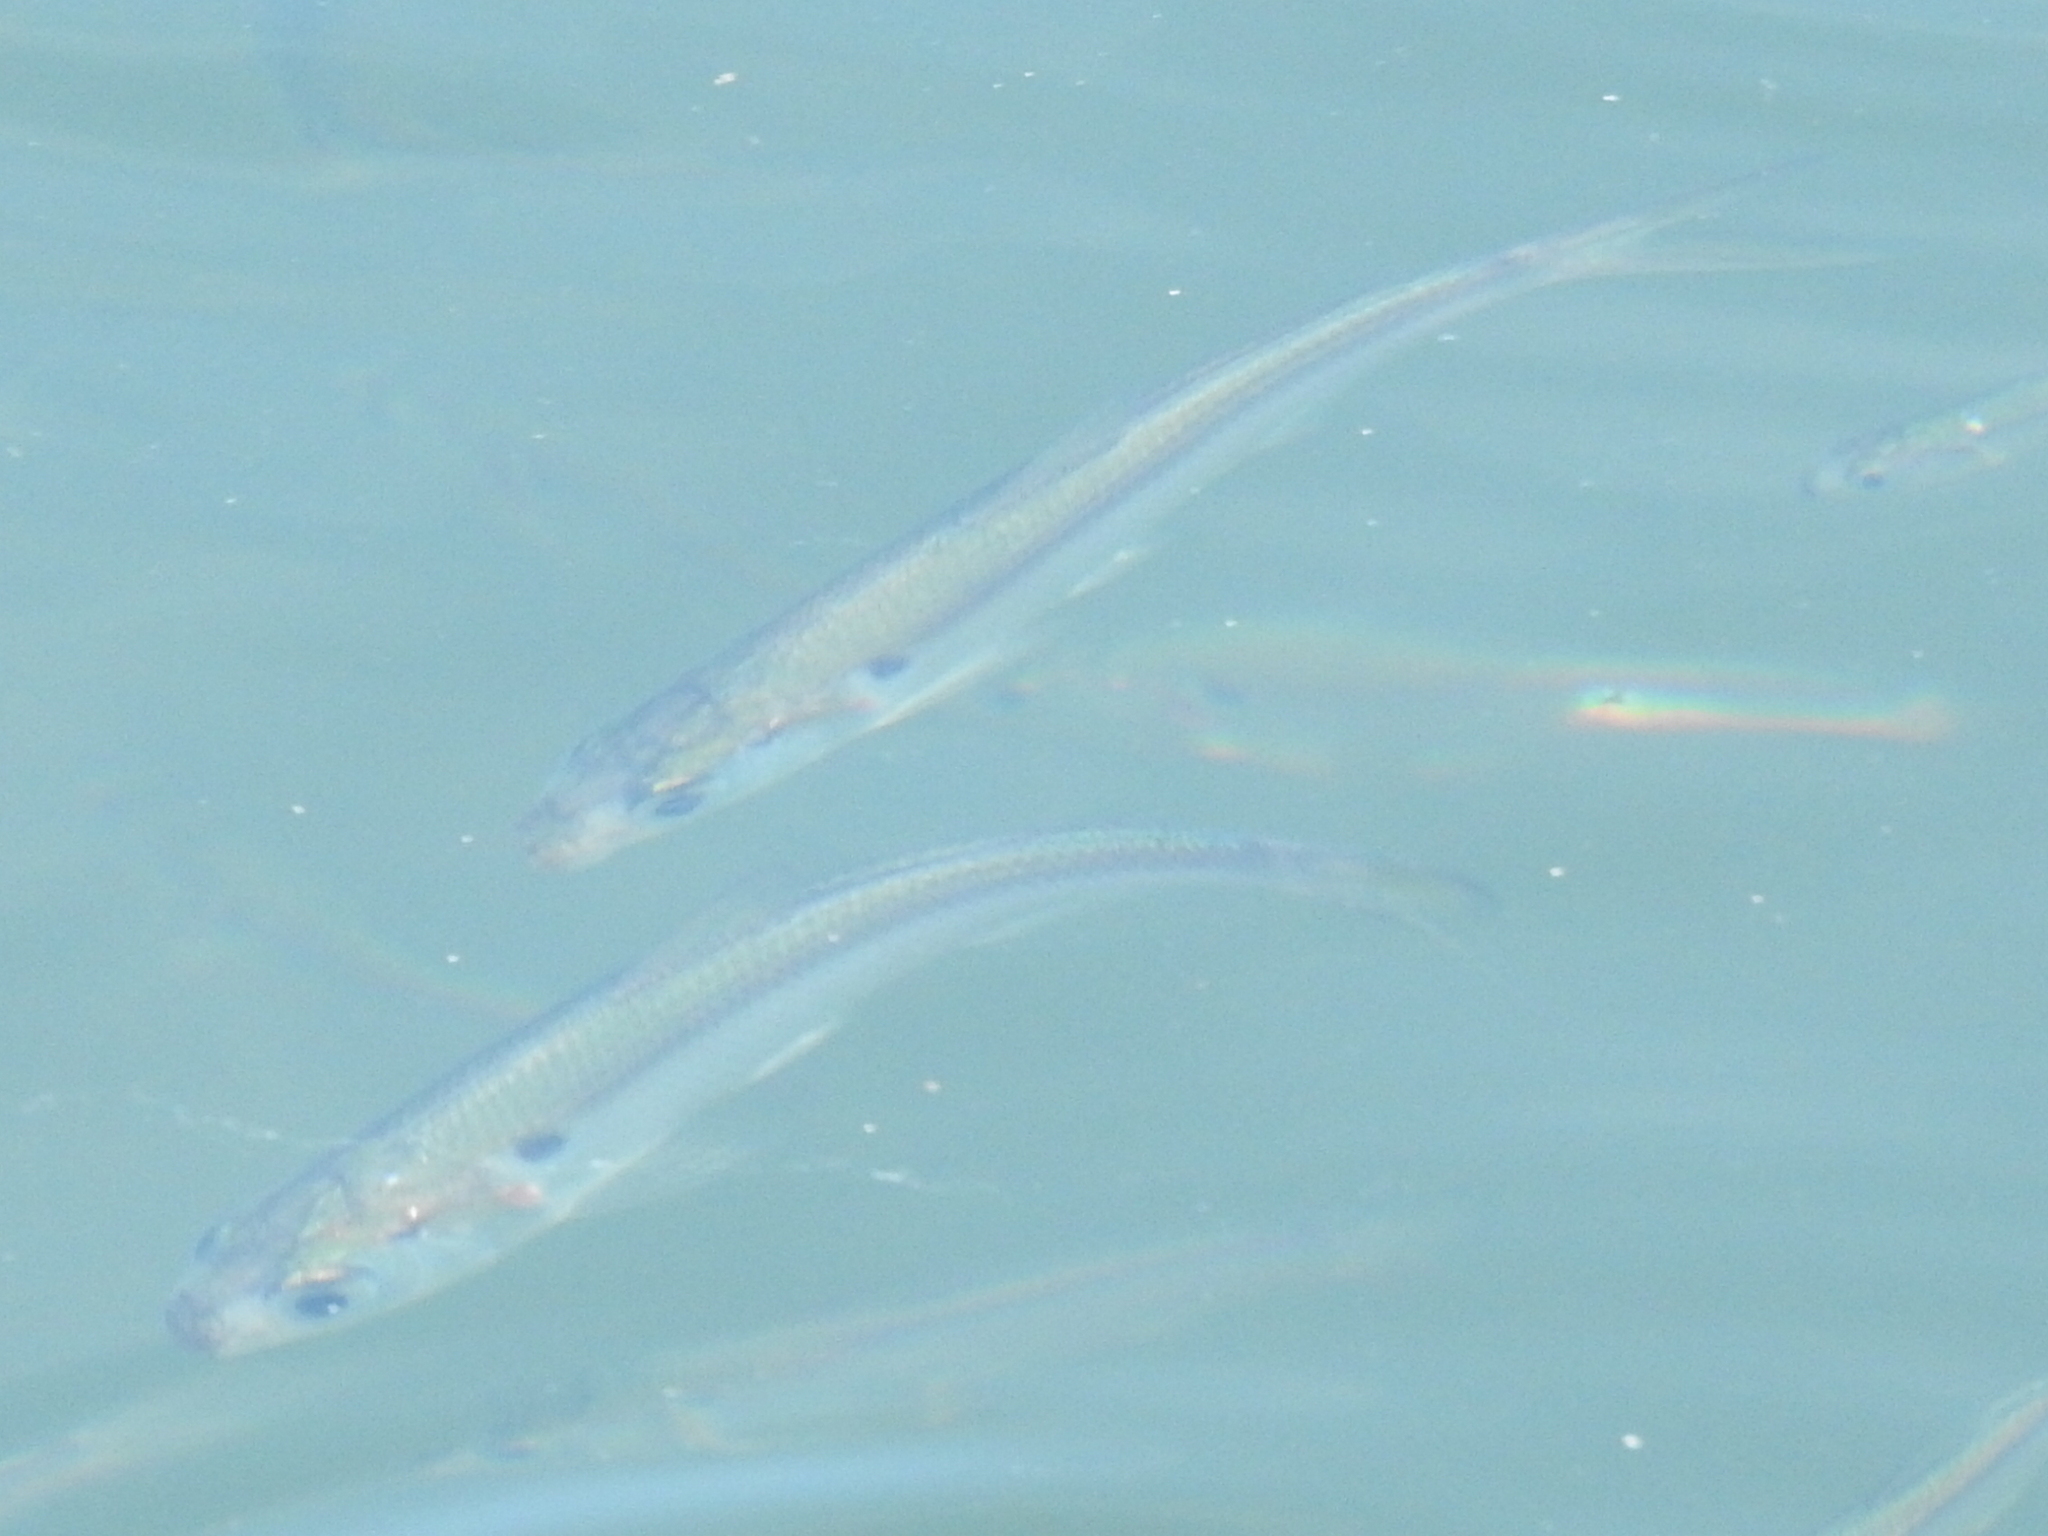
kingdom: Animalia
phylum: Chordata
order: Clupeiformes
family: Clupeidae
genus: Dorosoma
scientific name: Dorosoma petenense
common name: Threadfin shad
